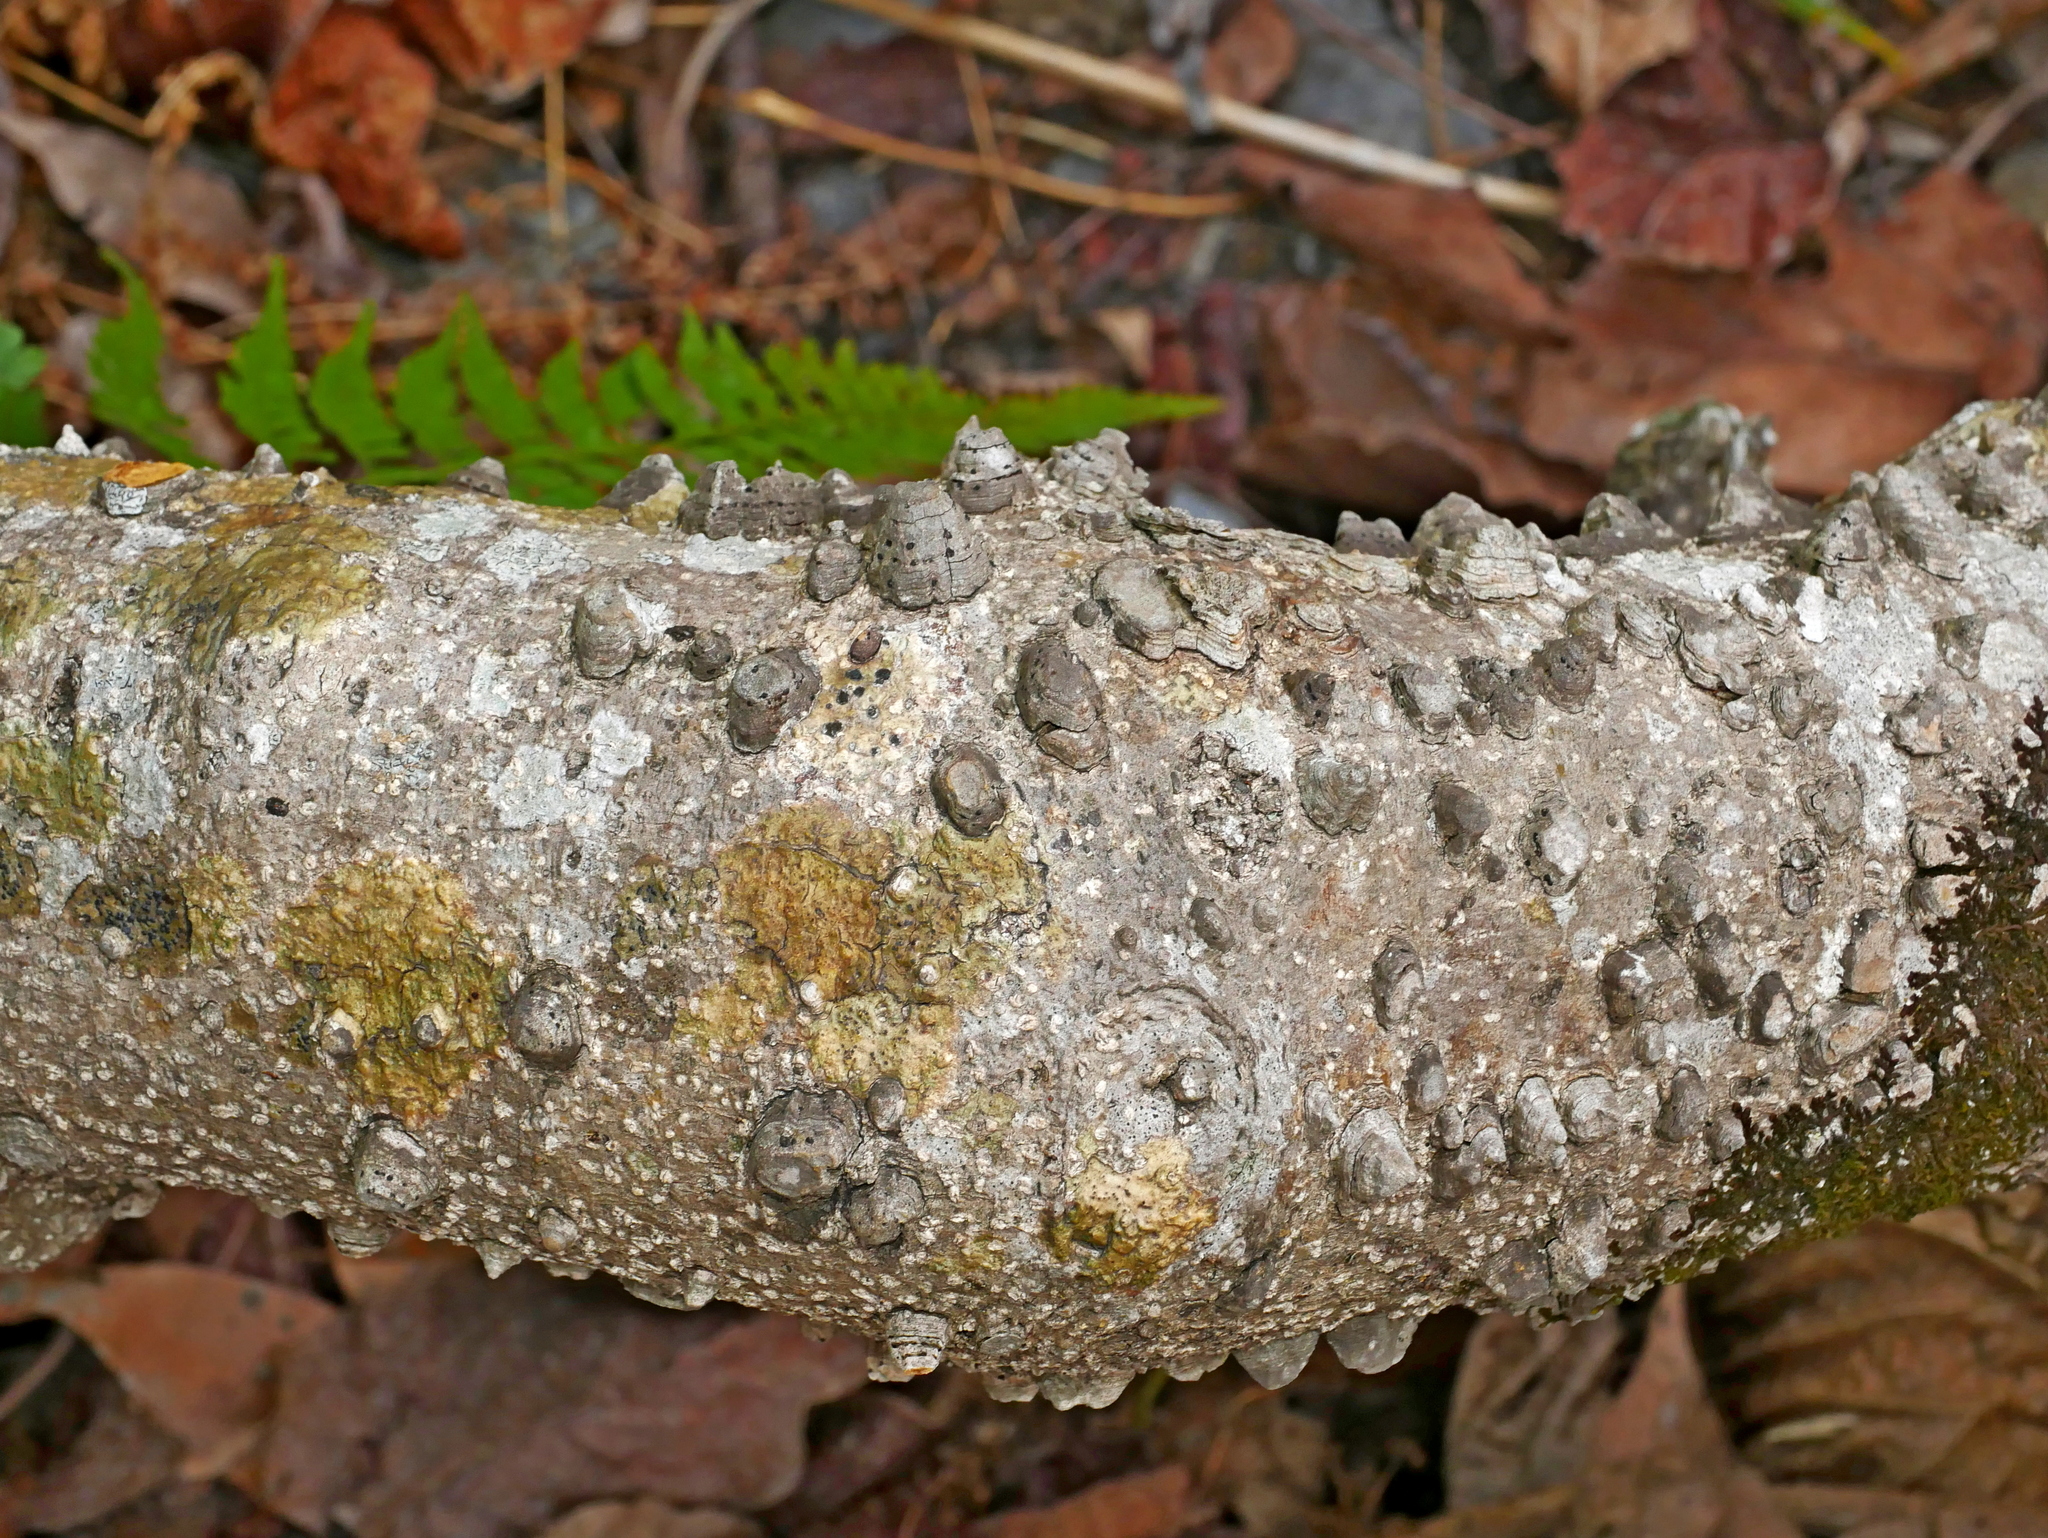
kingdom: Plantae
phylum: Tracheophyta
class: Magnoliopsida
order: Sapindales
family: Rutaceae
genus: Zanthoxylum
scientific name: Zanthoxylum asiaticum
